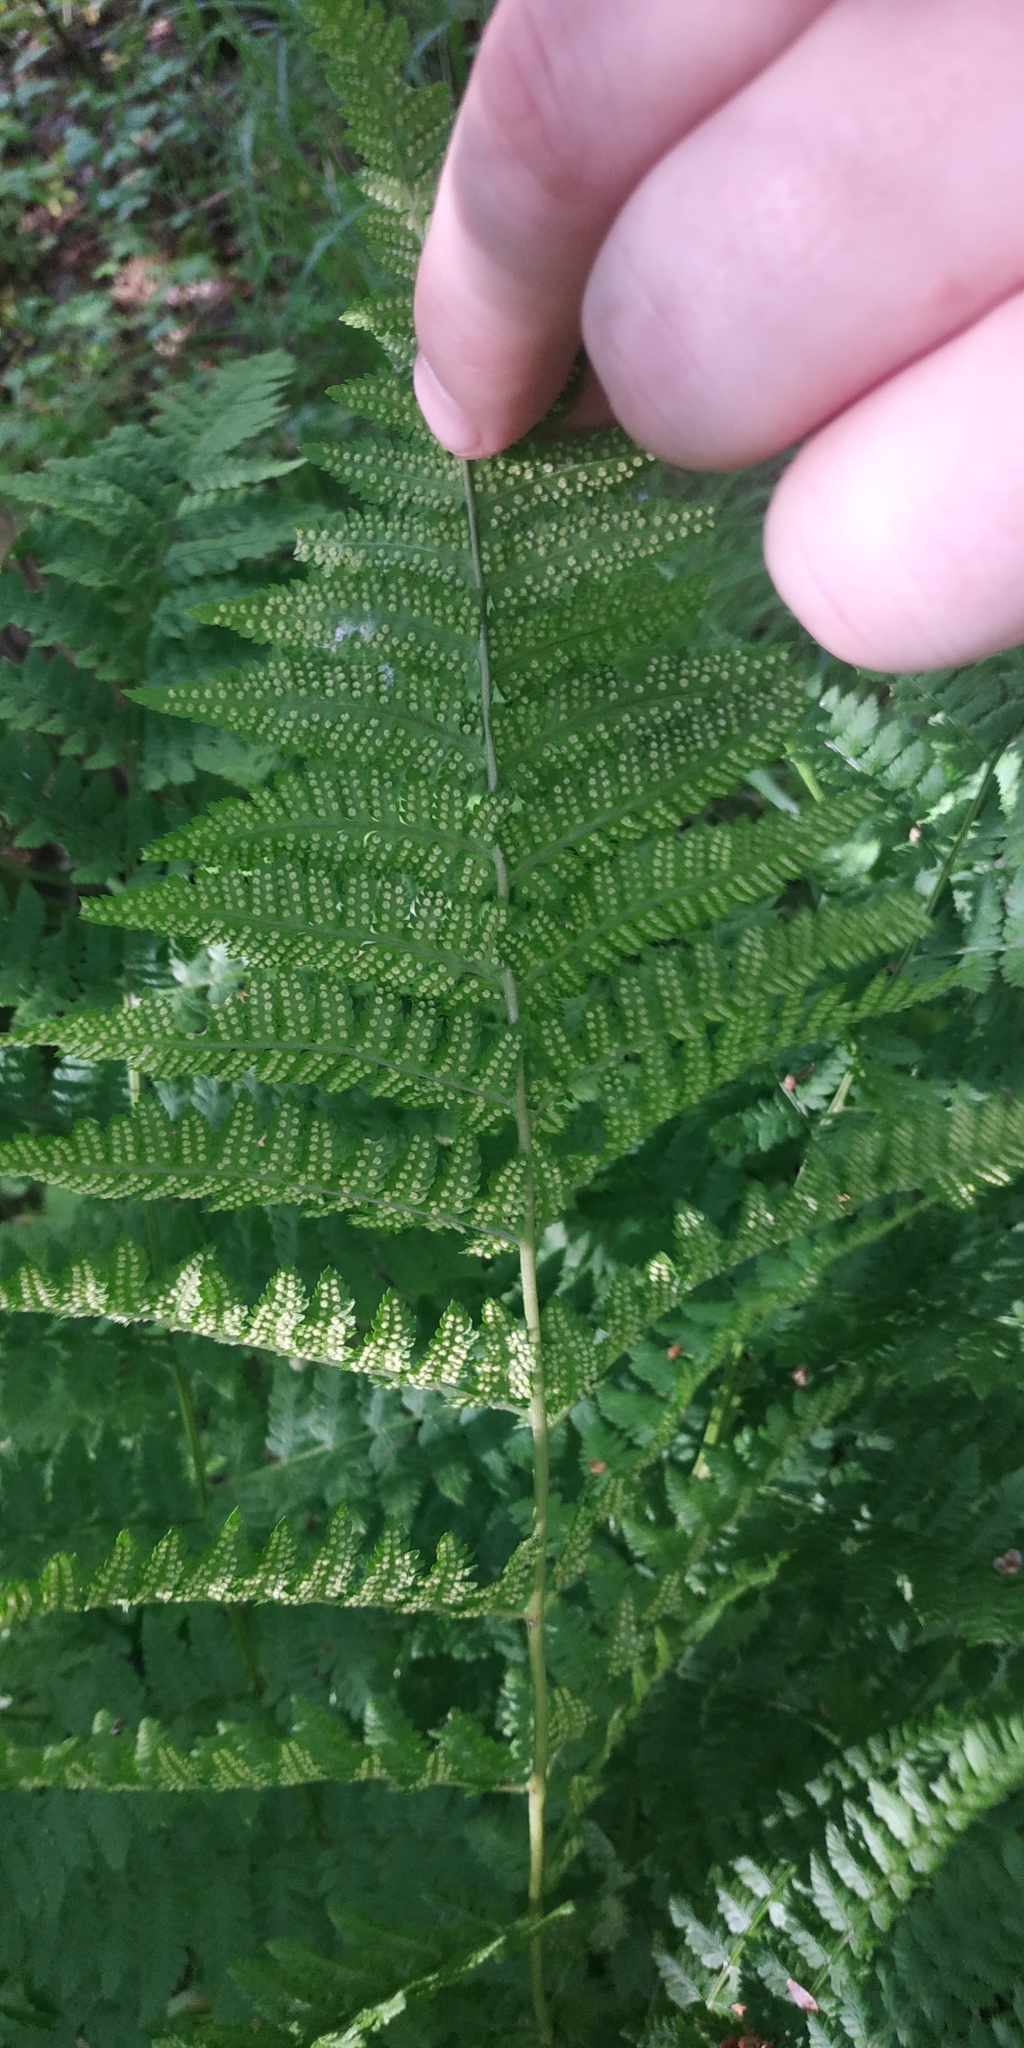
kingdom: Plantae
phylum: Tracheophyta
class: Polypodiopsida
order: Polypodiales
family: Dryopteridaceae
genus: Dryopteris
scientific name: Dryopteris carthusiana
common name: Narrow buckler-fern
